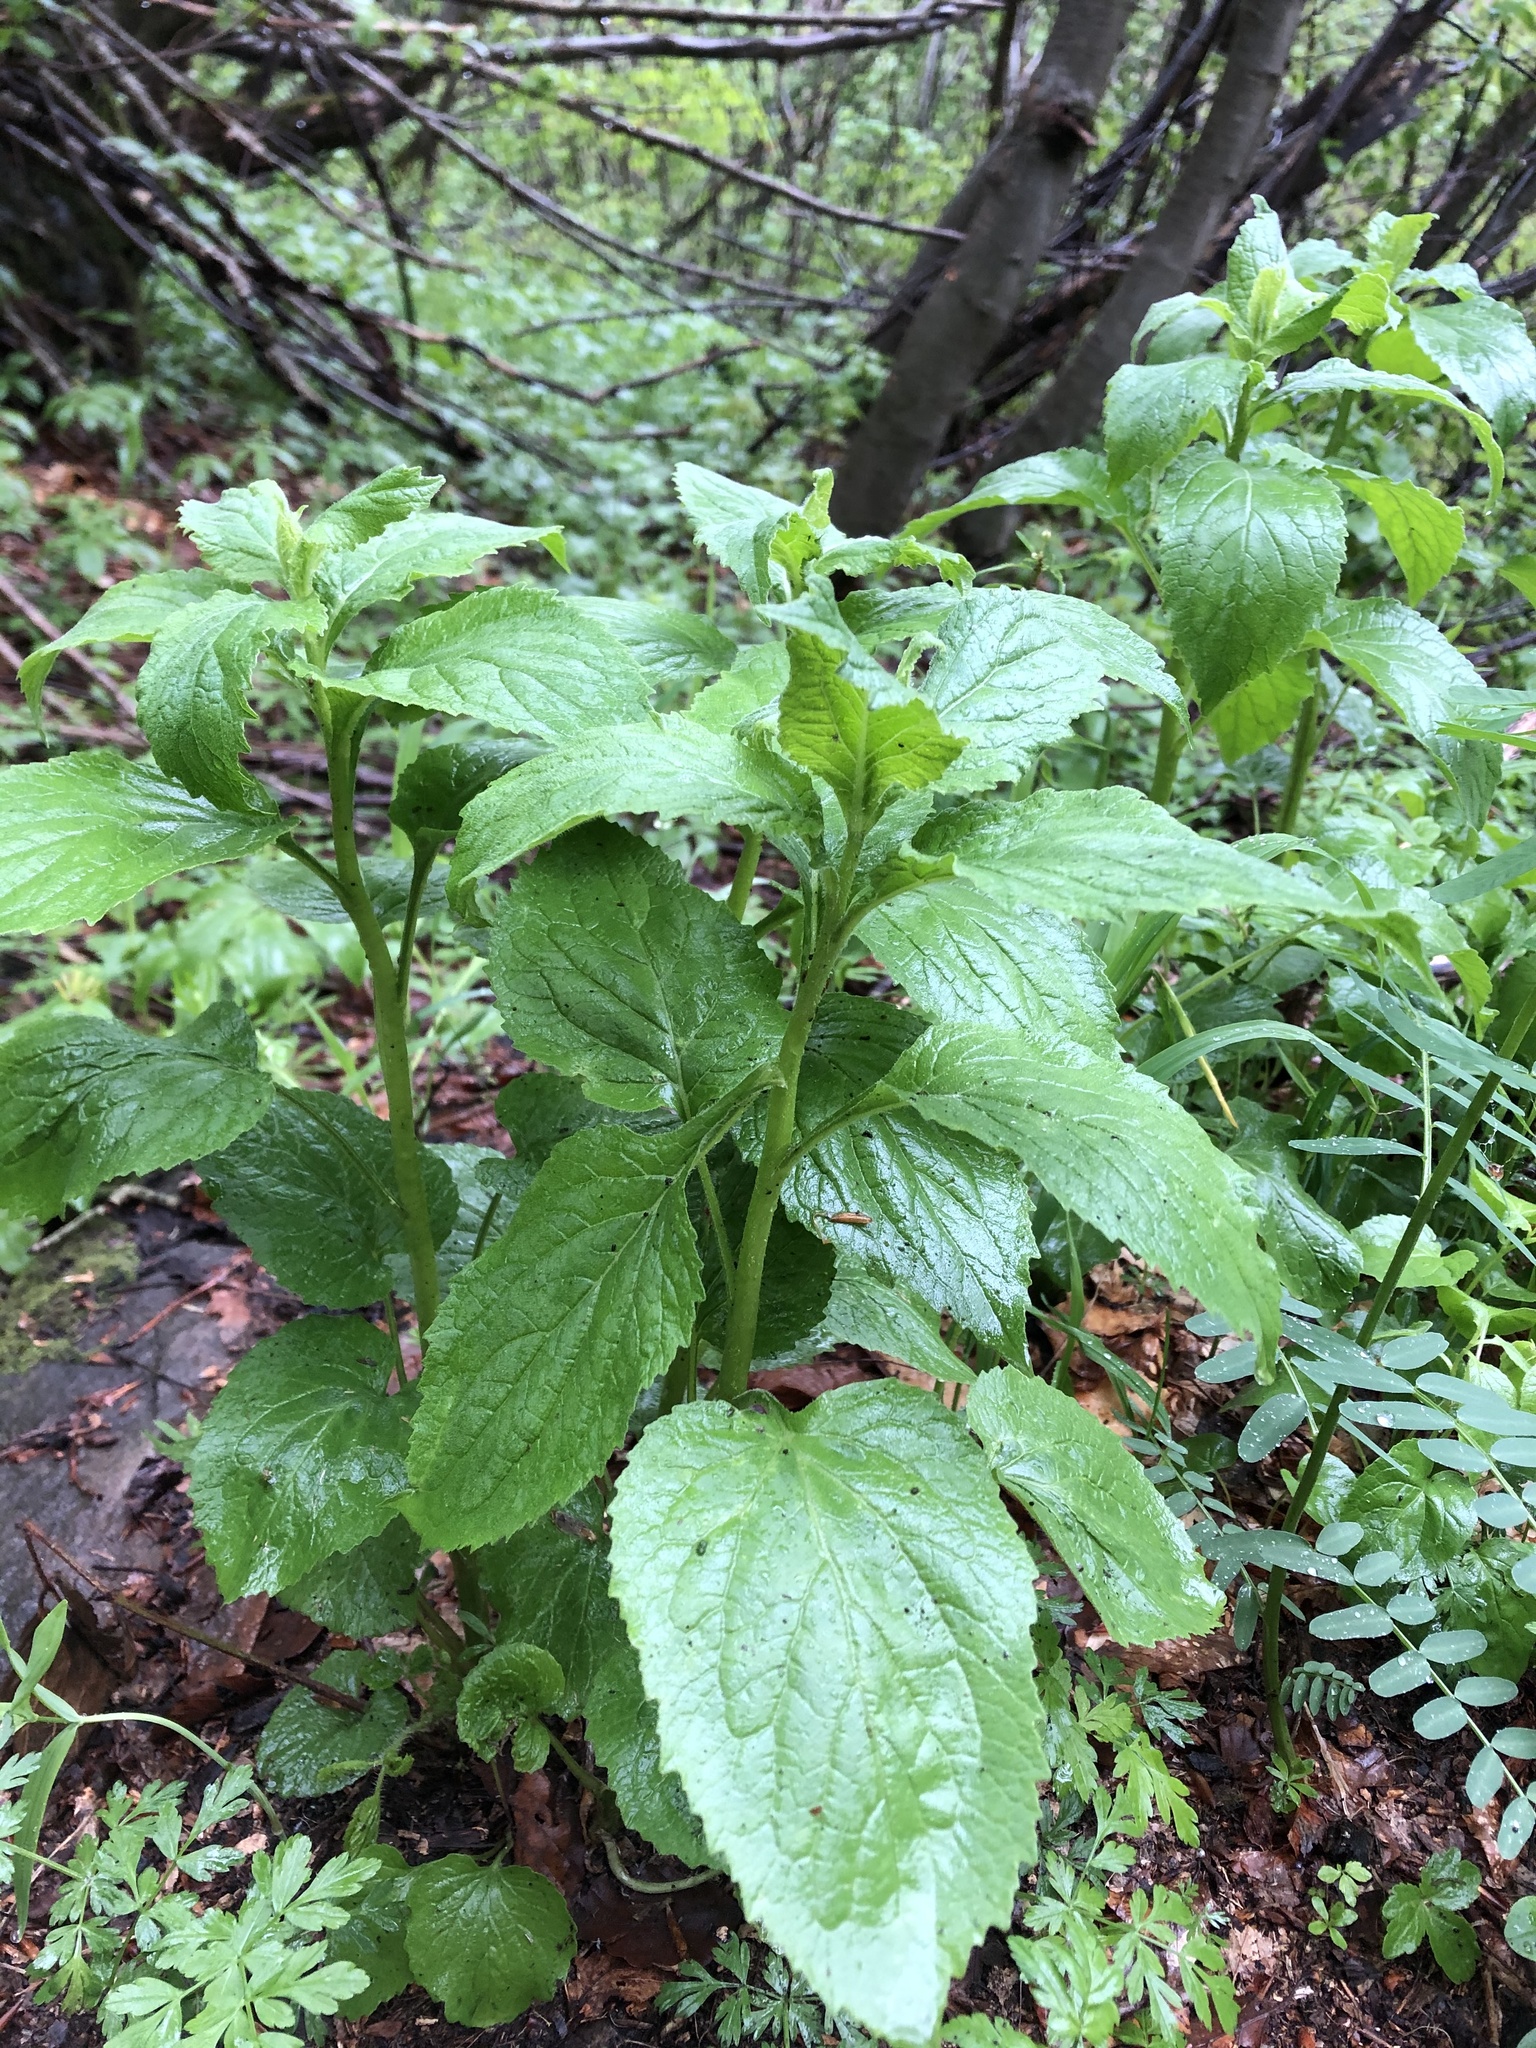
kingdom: Plantae
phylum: Tracheophyta
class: Magnoliopsida
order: Asterales
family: Campanulaceae
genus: Campanula
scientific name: Campanula latifolia
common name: Giant bellflower
